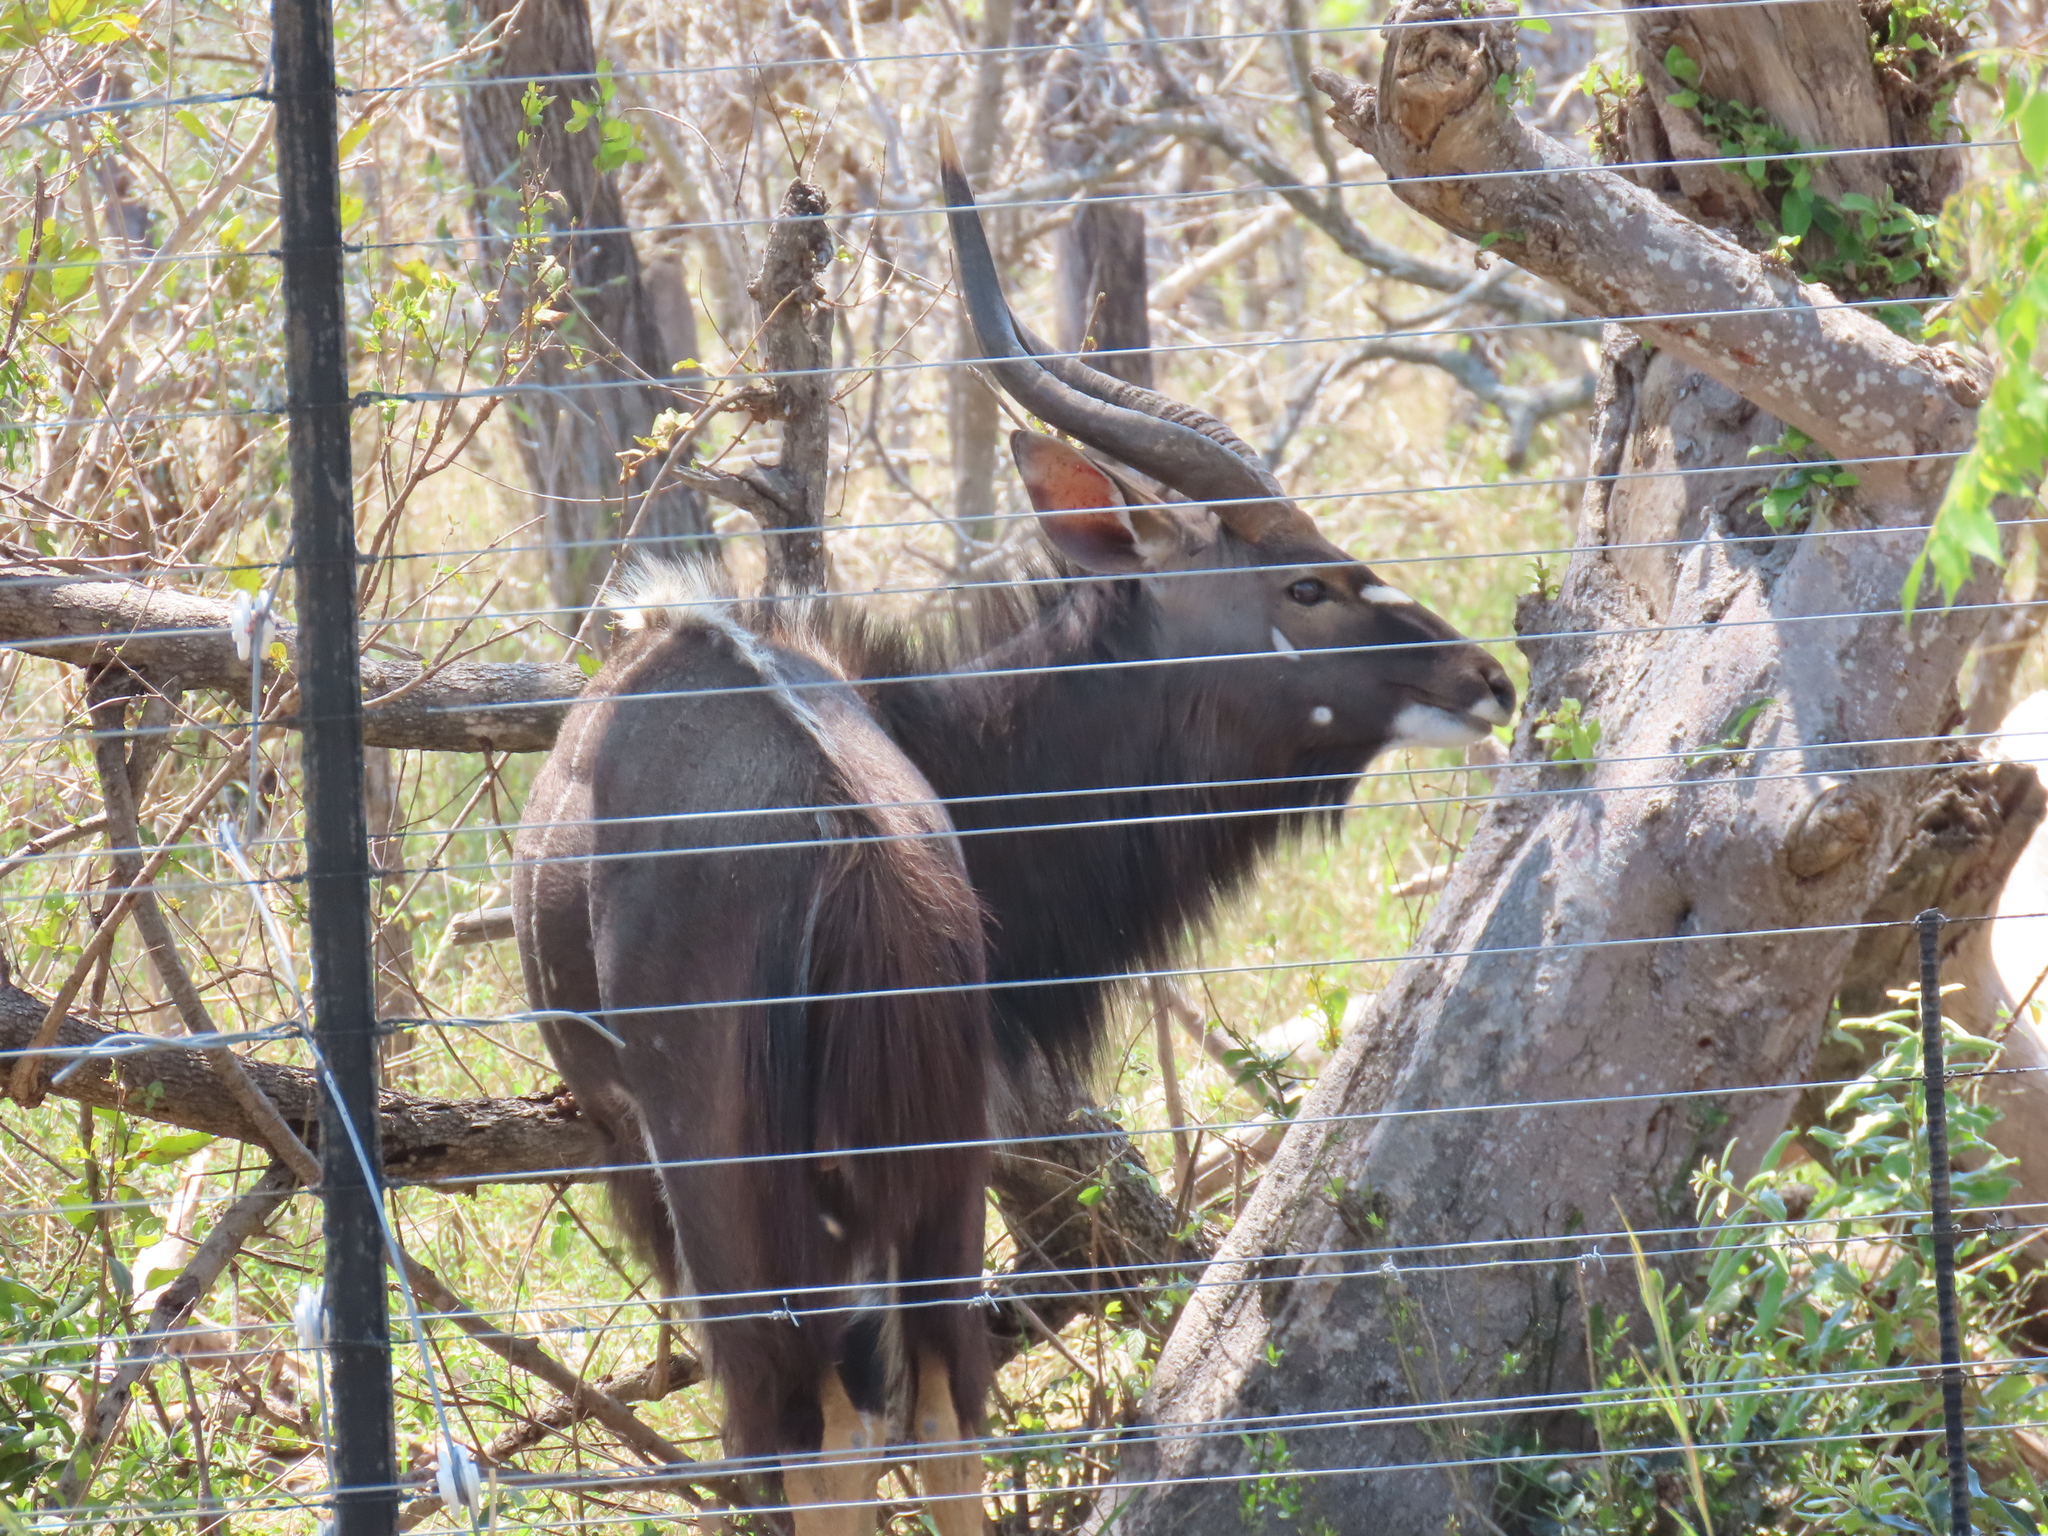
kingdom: Animalia
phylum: Chordata
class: Mammalia
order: Artiodactyla
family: Bovidae
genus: Tragelaphus
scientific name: Tragelaphus angasii
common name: Nyala
